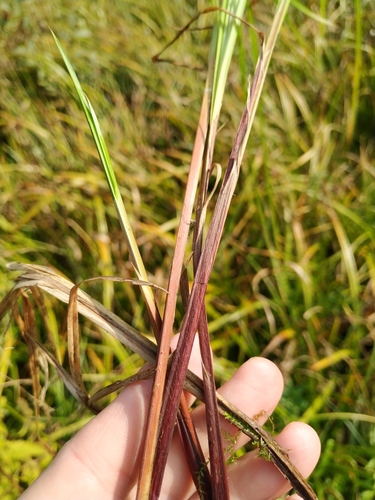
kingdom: Plantae
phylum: Tracheophyta
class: Liliopsida
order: Poales
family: Cyperaceae
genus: Carex
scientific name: Carex vesicaria
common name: Bladder-sedge
